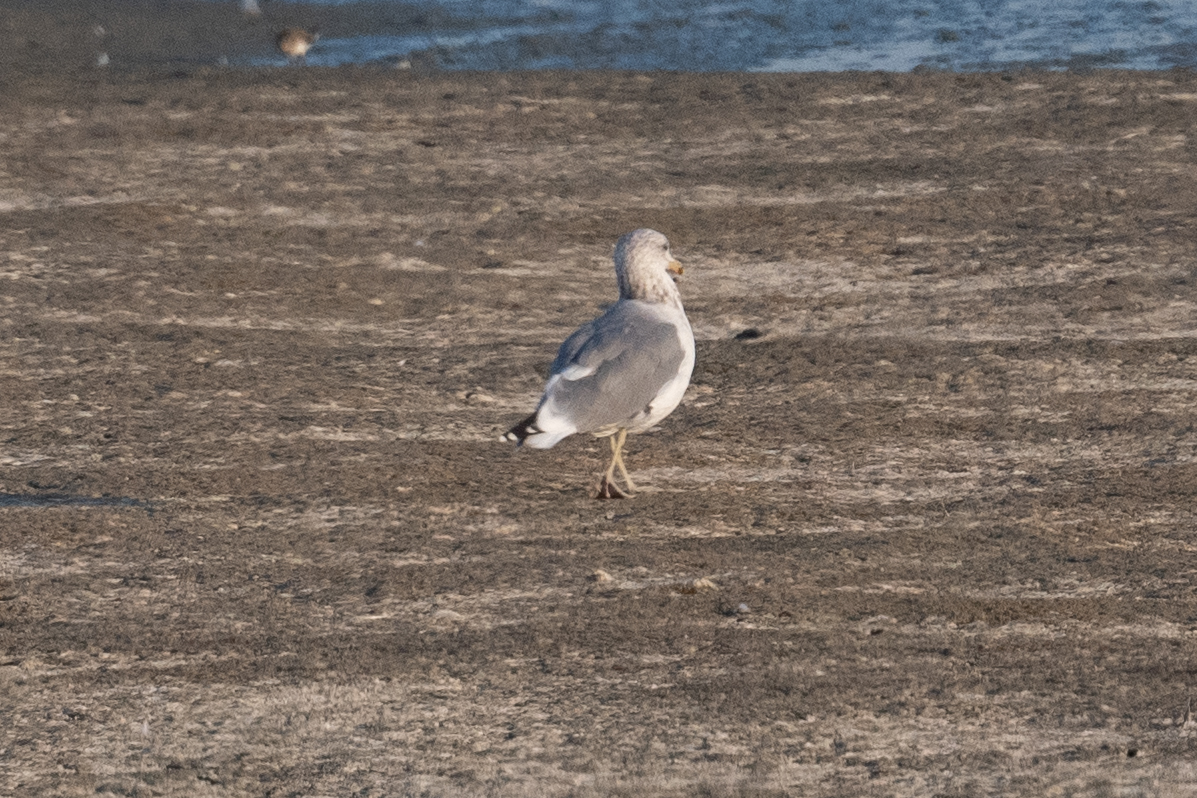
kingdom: Animalia
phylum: Chordata
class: Aves
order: Charadriiformes
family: Laridae
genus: Larus
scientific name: Larus californicus
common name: California gull
